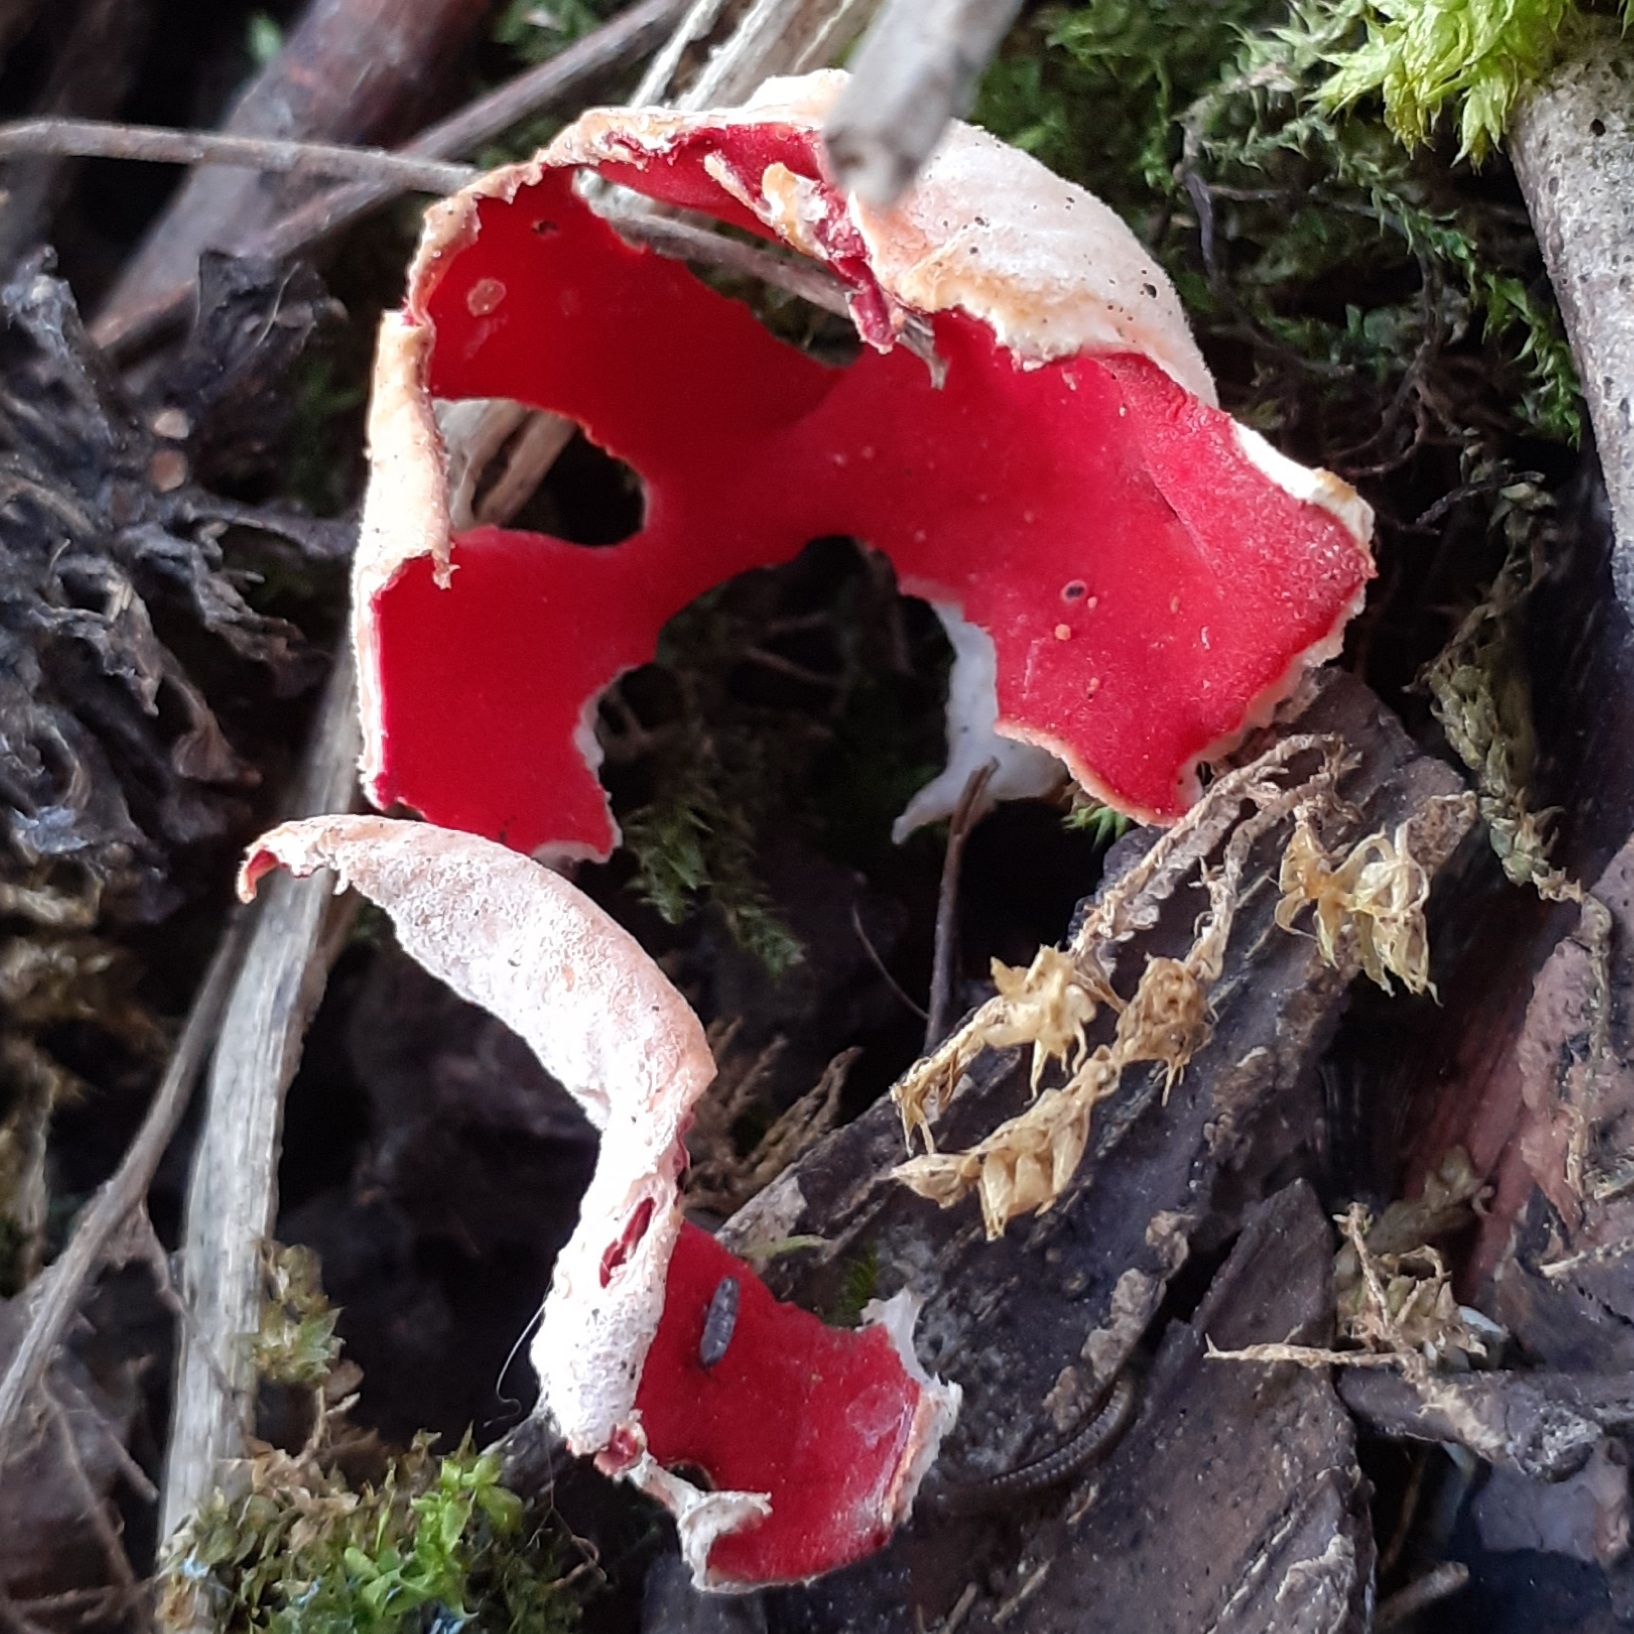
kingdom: Fungi
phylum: Ascomycota
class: Pezizomycetes
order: Pezizales
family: Sarcoscyphaceae
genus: Sarcoscypha
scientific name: Sarcoscypha
